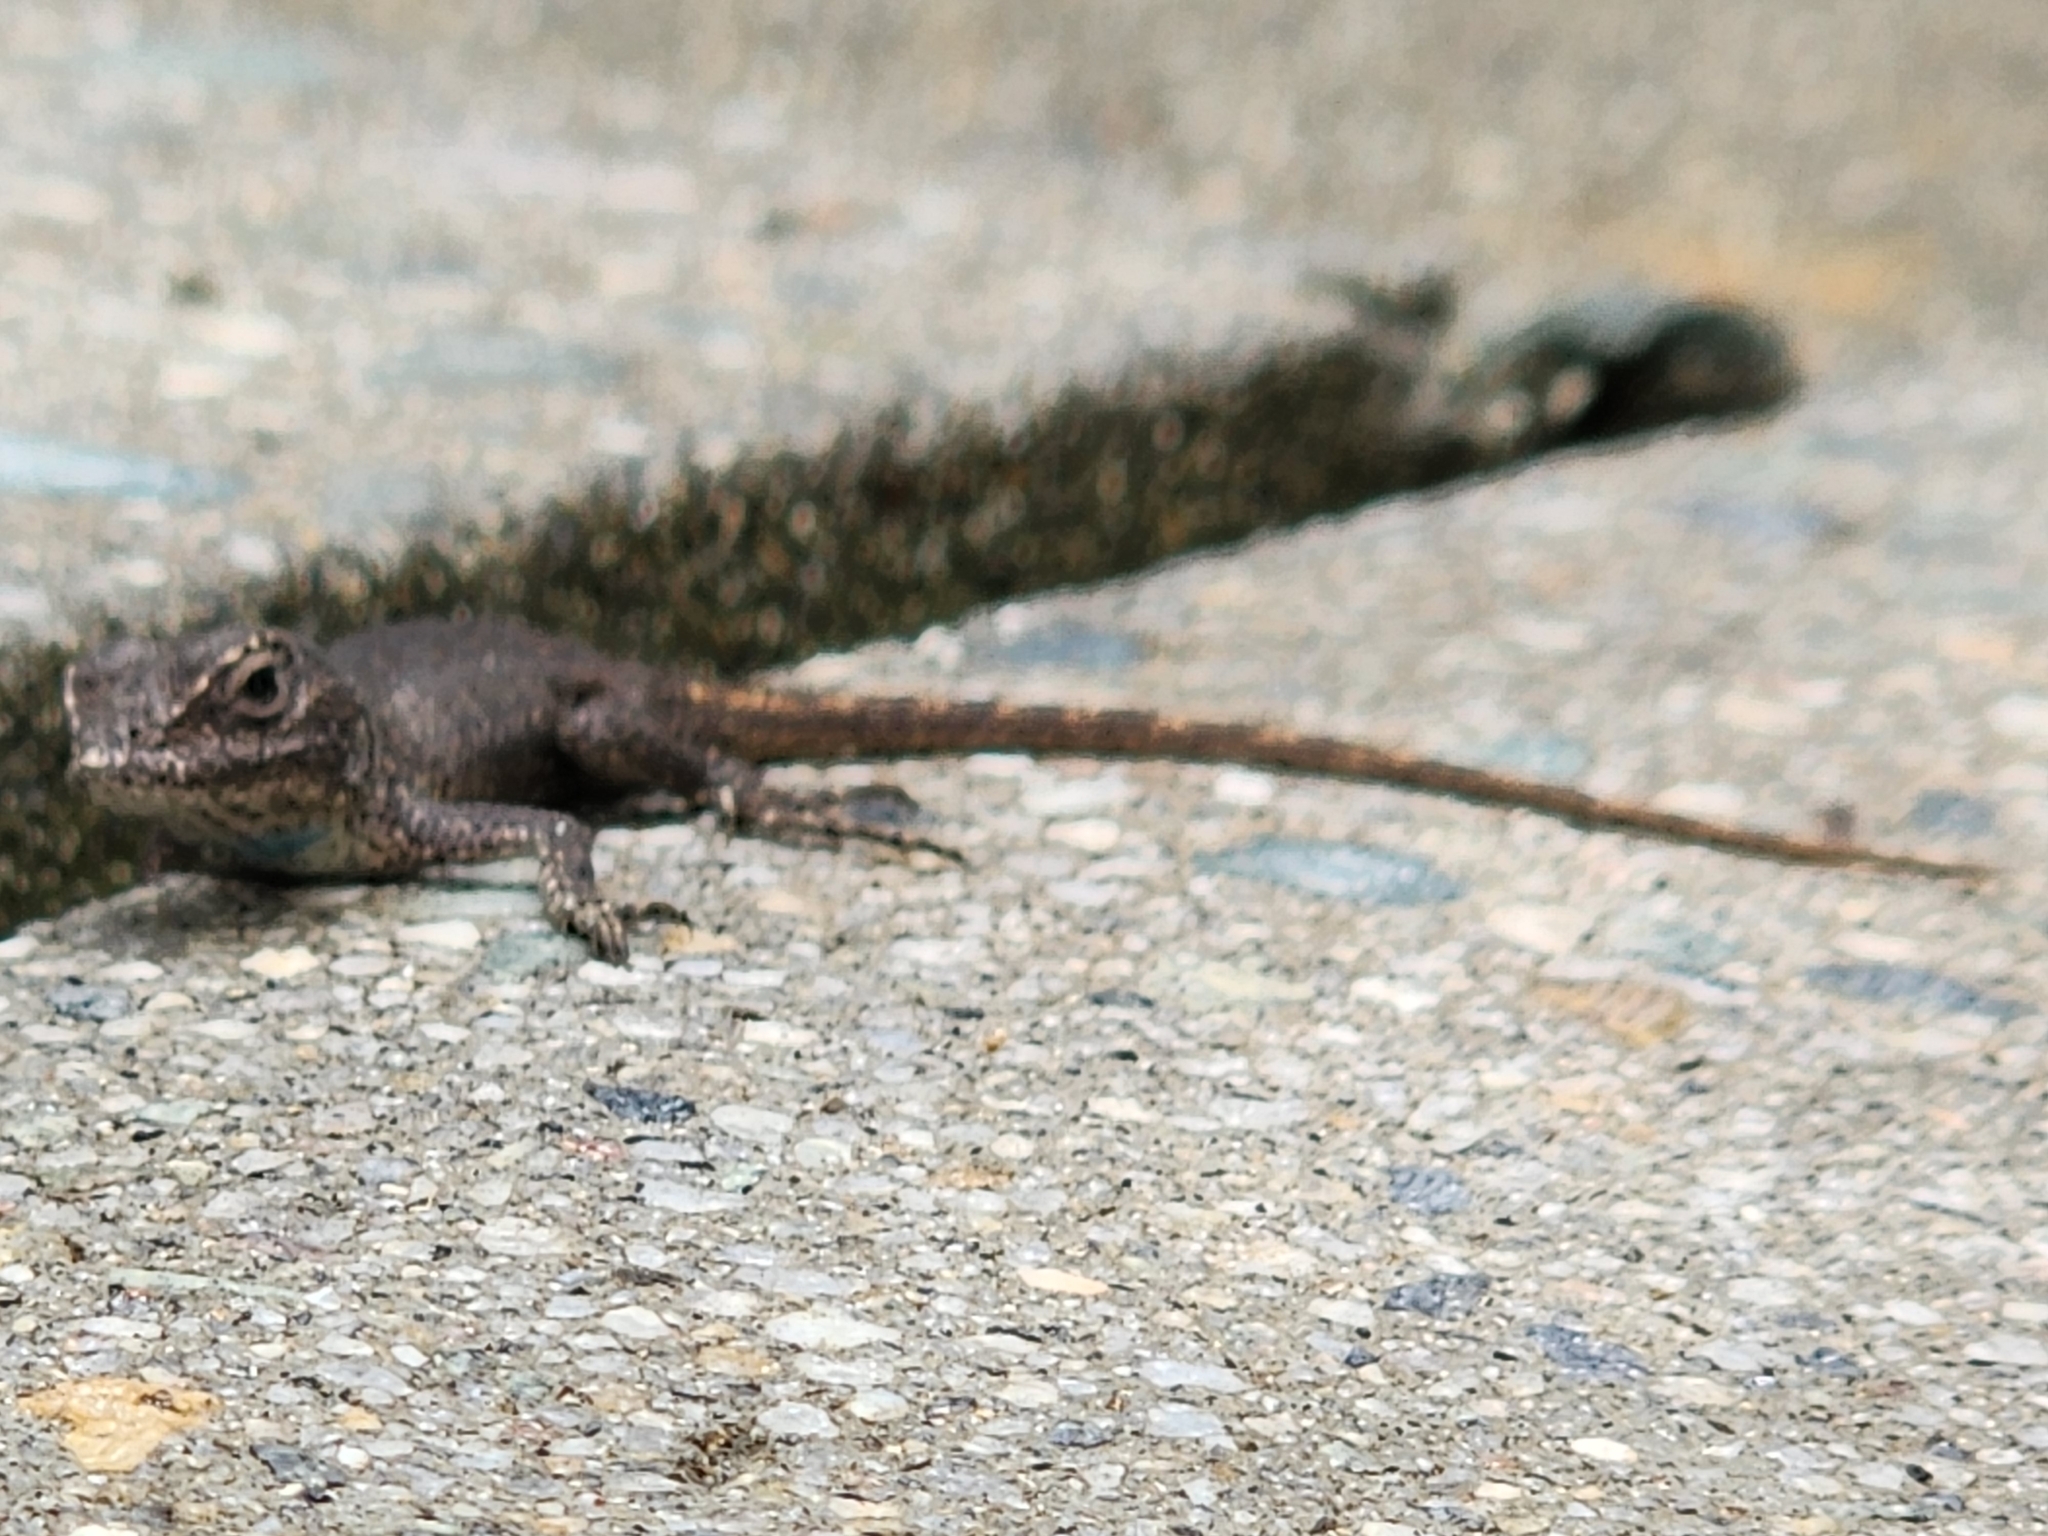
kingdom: Animalia
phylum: Chordata
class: Squamata
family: Phrynosomatidae
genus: Sceloporus
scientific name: Sceloporus occidentalis
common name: Western fence lizard
